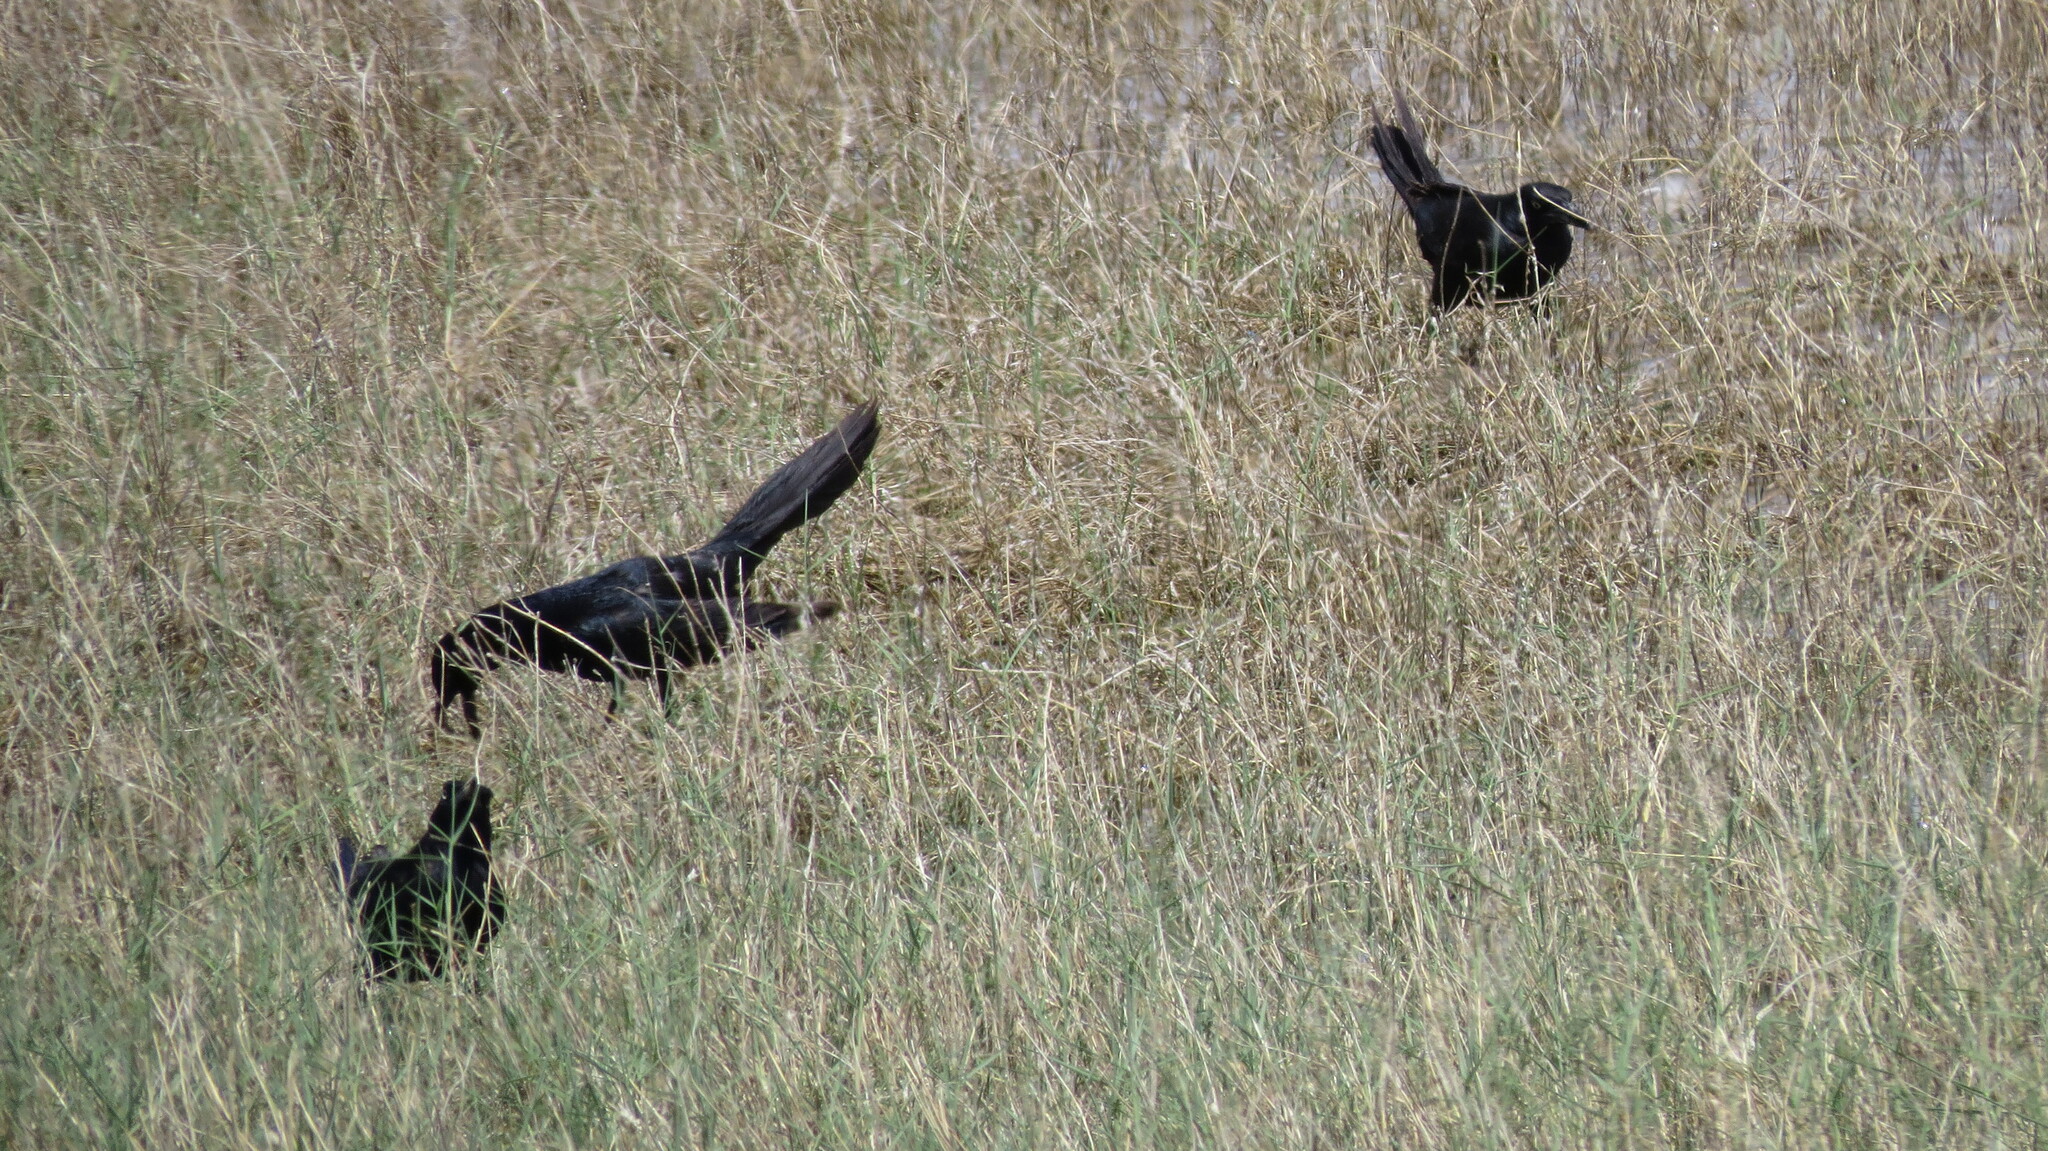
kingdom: Animalia
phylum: Chordata
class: Aves
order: Passeriformes
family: Icteridae
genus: Quiscalus
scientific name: Quiscalus mexicanus
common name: Great-tailed grackle
